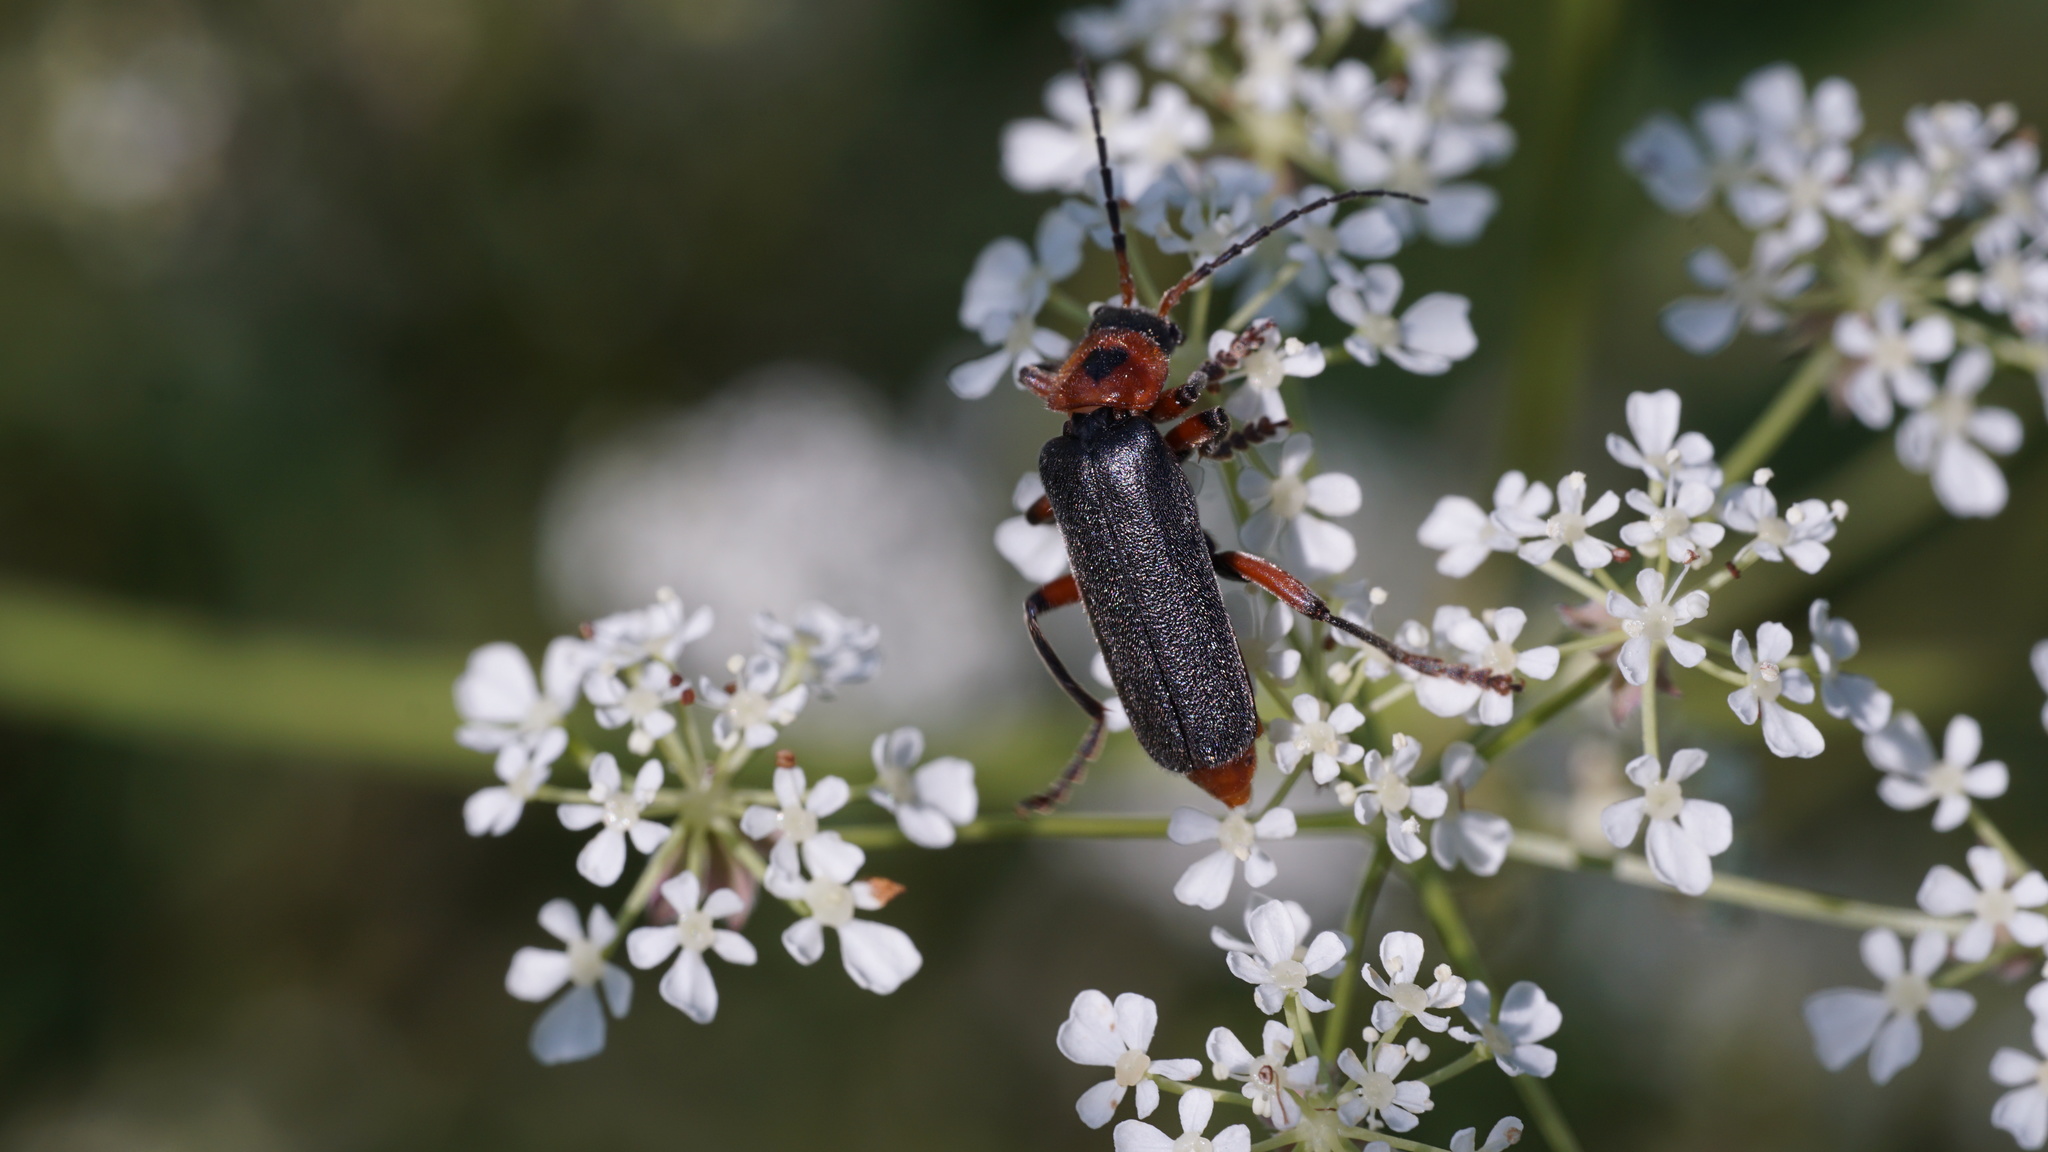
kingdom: Animalia
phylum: Arthropoda
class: Insecta
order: Coleoptera
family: Cantharidae
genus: Cantharis
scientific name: Cantharis rustica
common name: Soldier beetle
